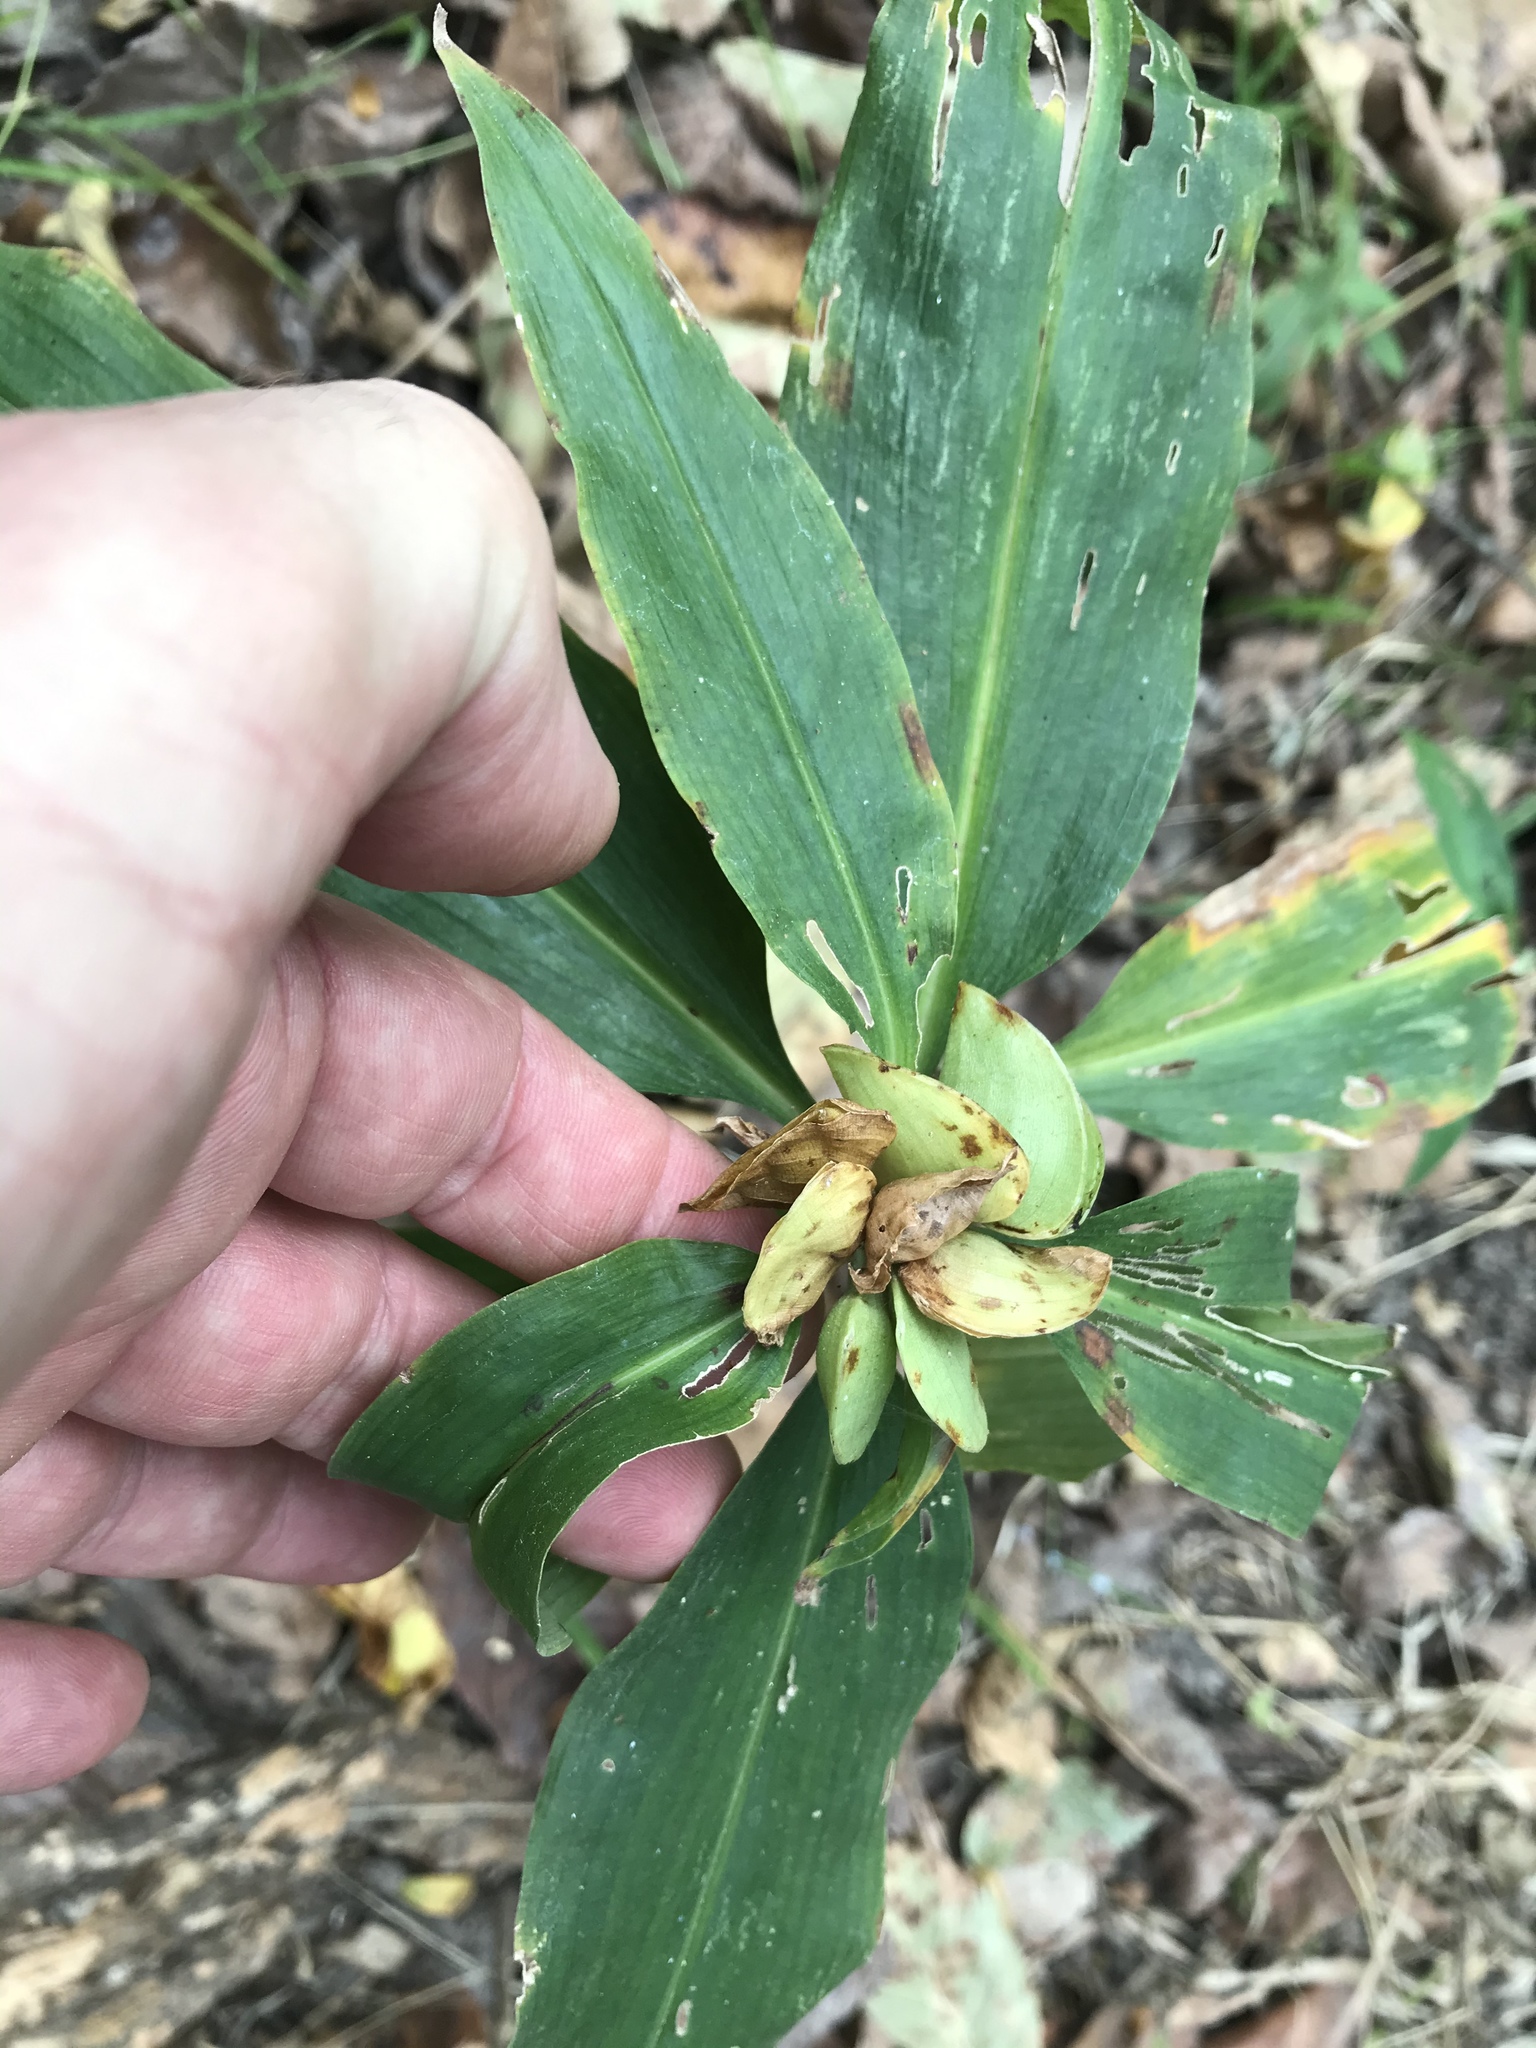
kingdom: Plantae
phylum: Tracheophyta
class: Liliopsida
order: Commelinales
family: Commelinaceae
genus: Commelina
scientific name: Commelina virginica
